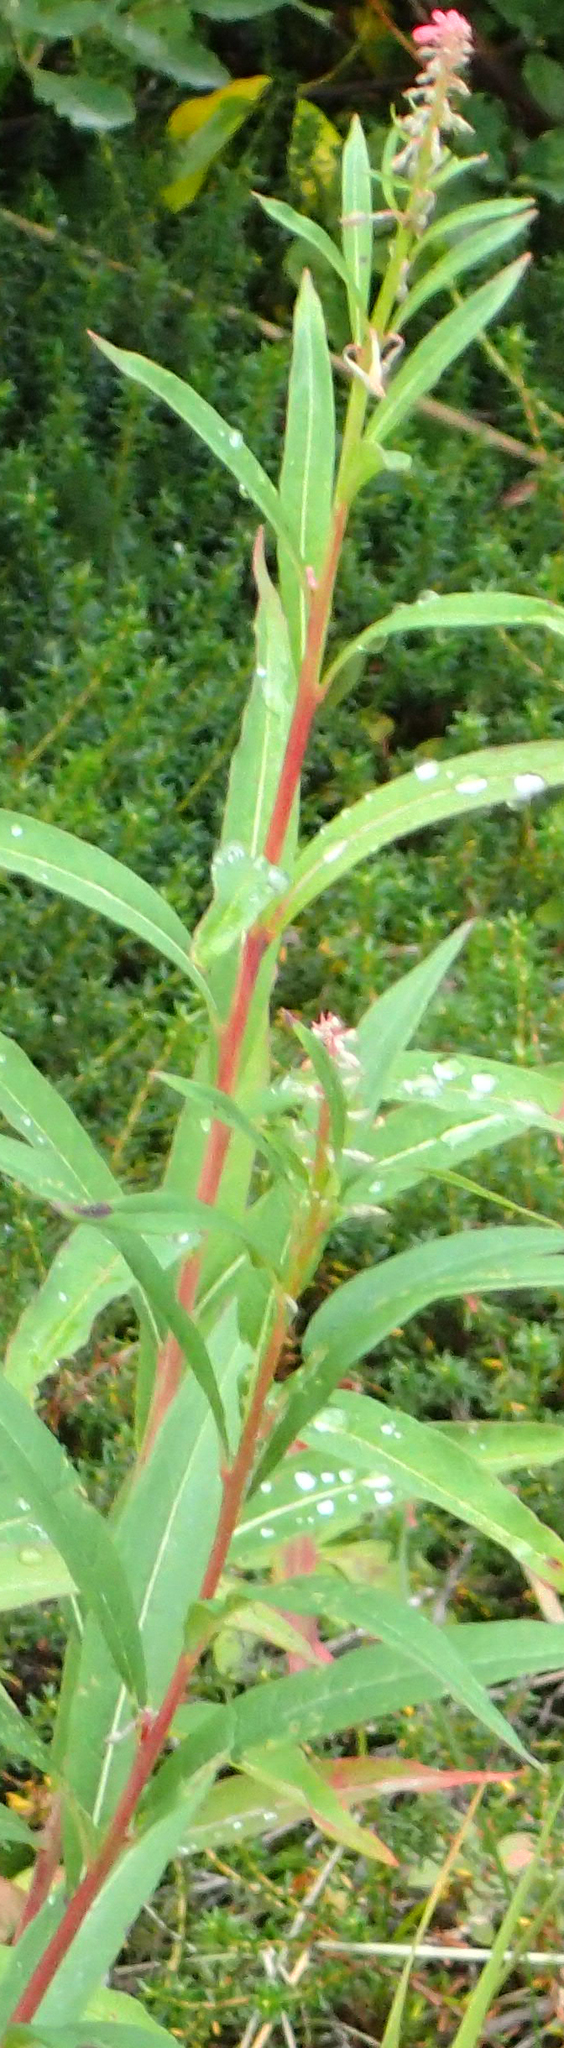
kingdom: Plantae
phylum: Tracheophyta
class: Magnoliopsida
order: Myrtales
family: Onagraceae
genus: Chamaenerion
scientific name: Chamaenerion angustifolium
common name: Fireweed
